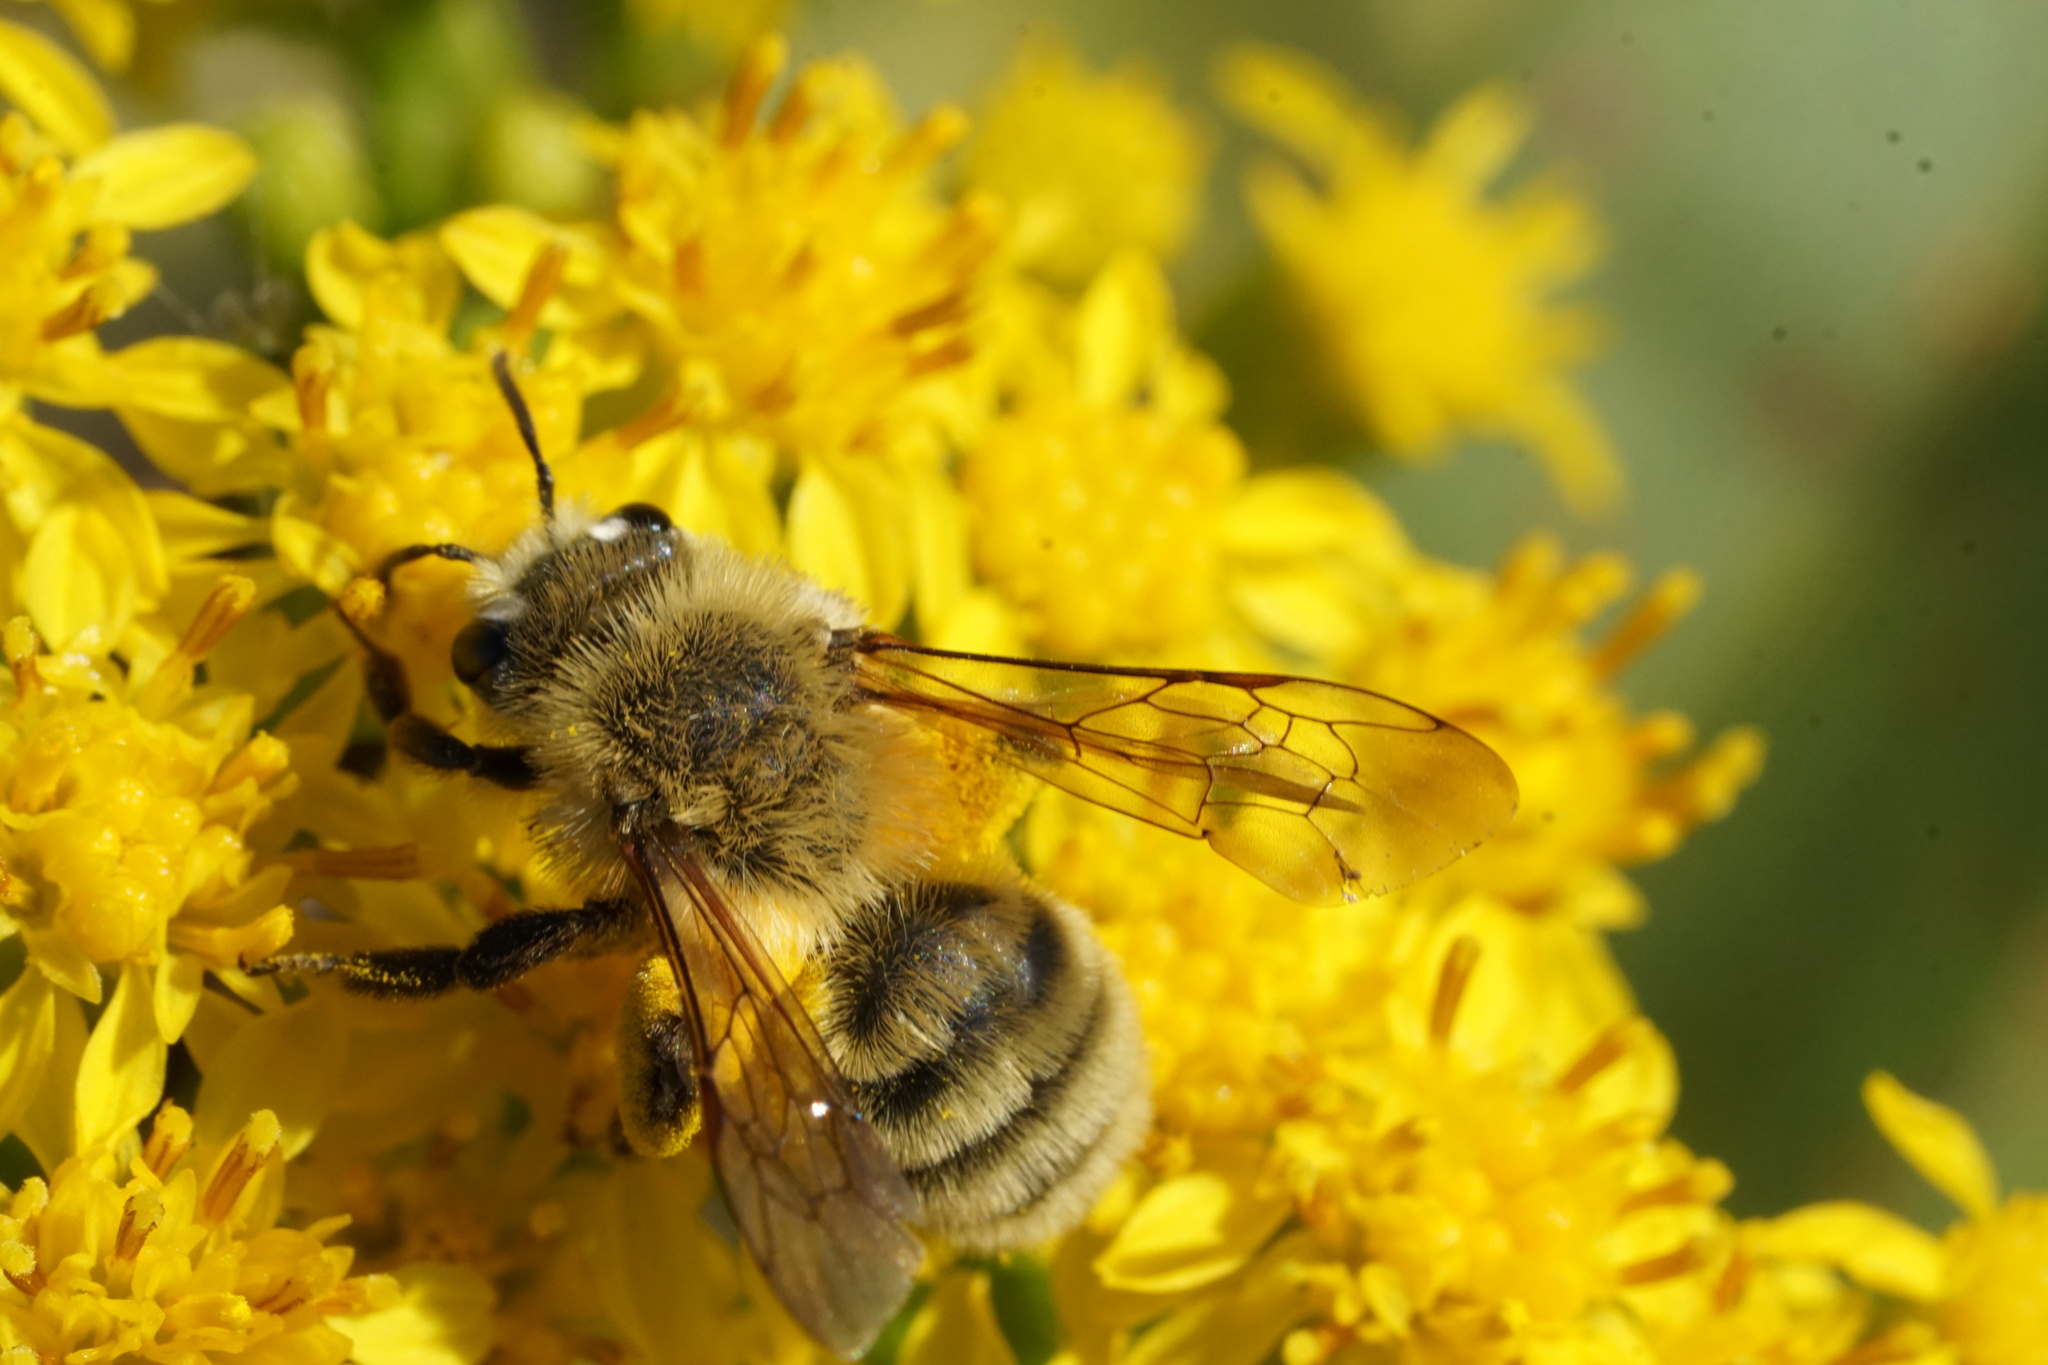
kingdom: Animalia
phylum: Arthropoda
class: Insecta
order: Hymenoptera
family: Andrenidae
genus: Andrena
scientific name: Andrena hirticincta
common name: Hairy-banded mining bee
